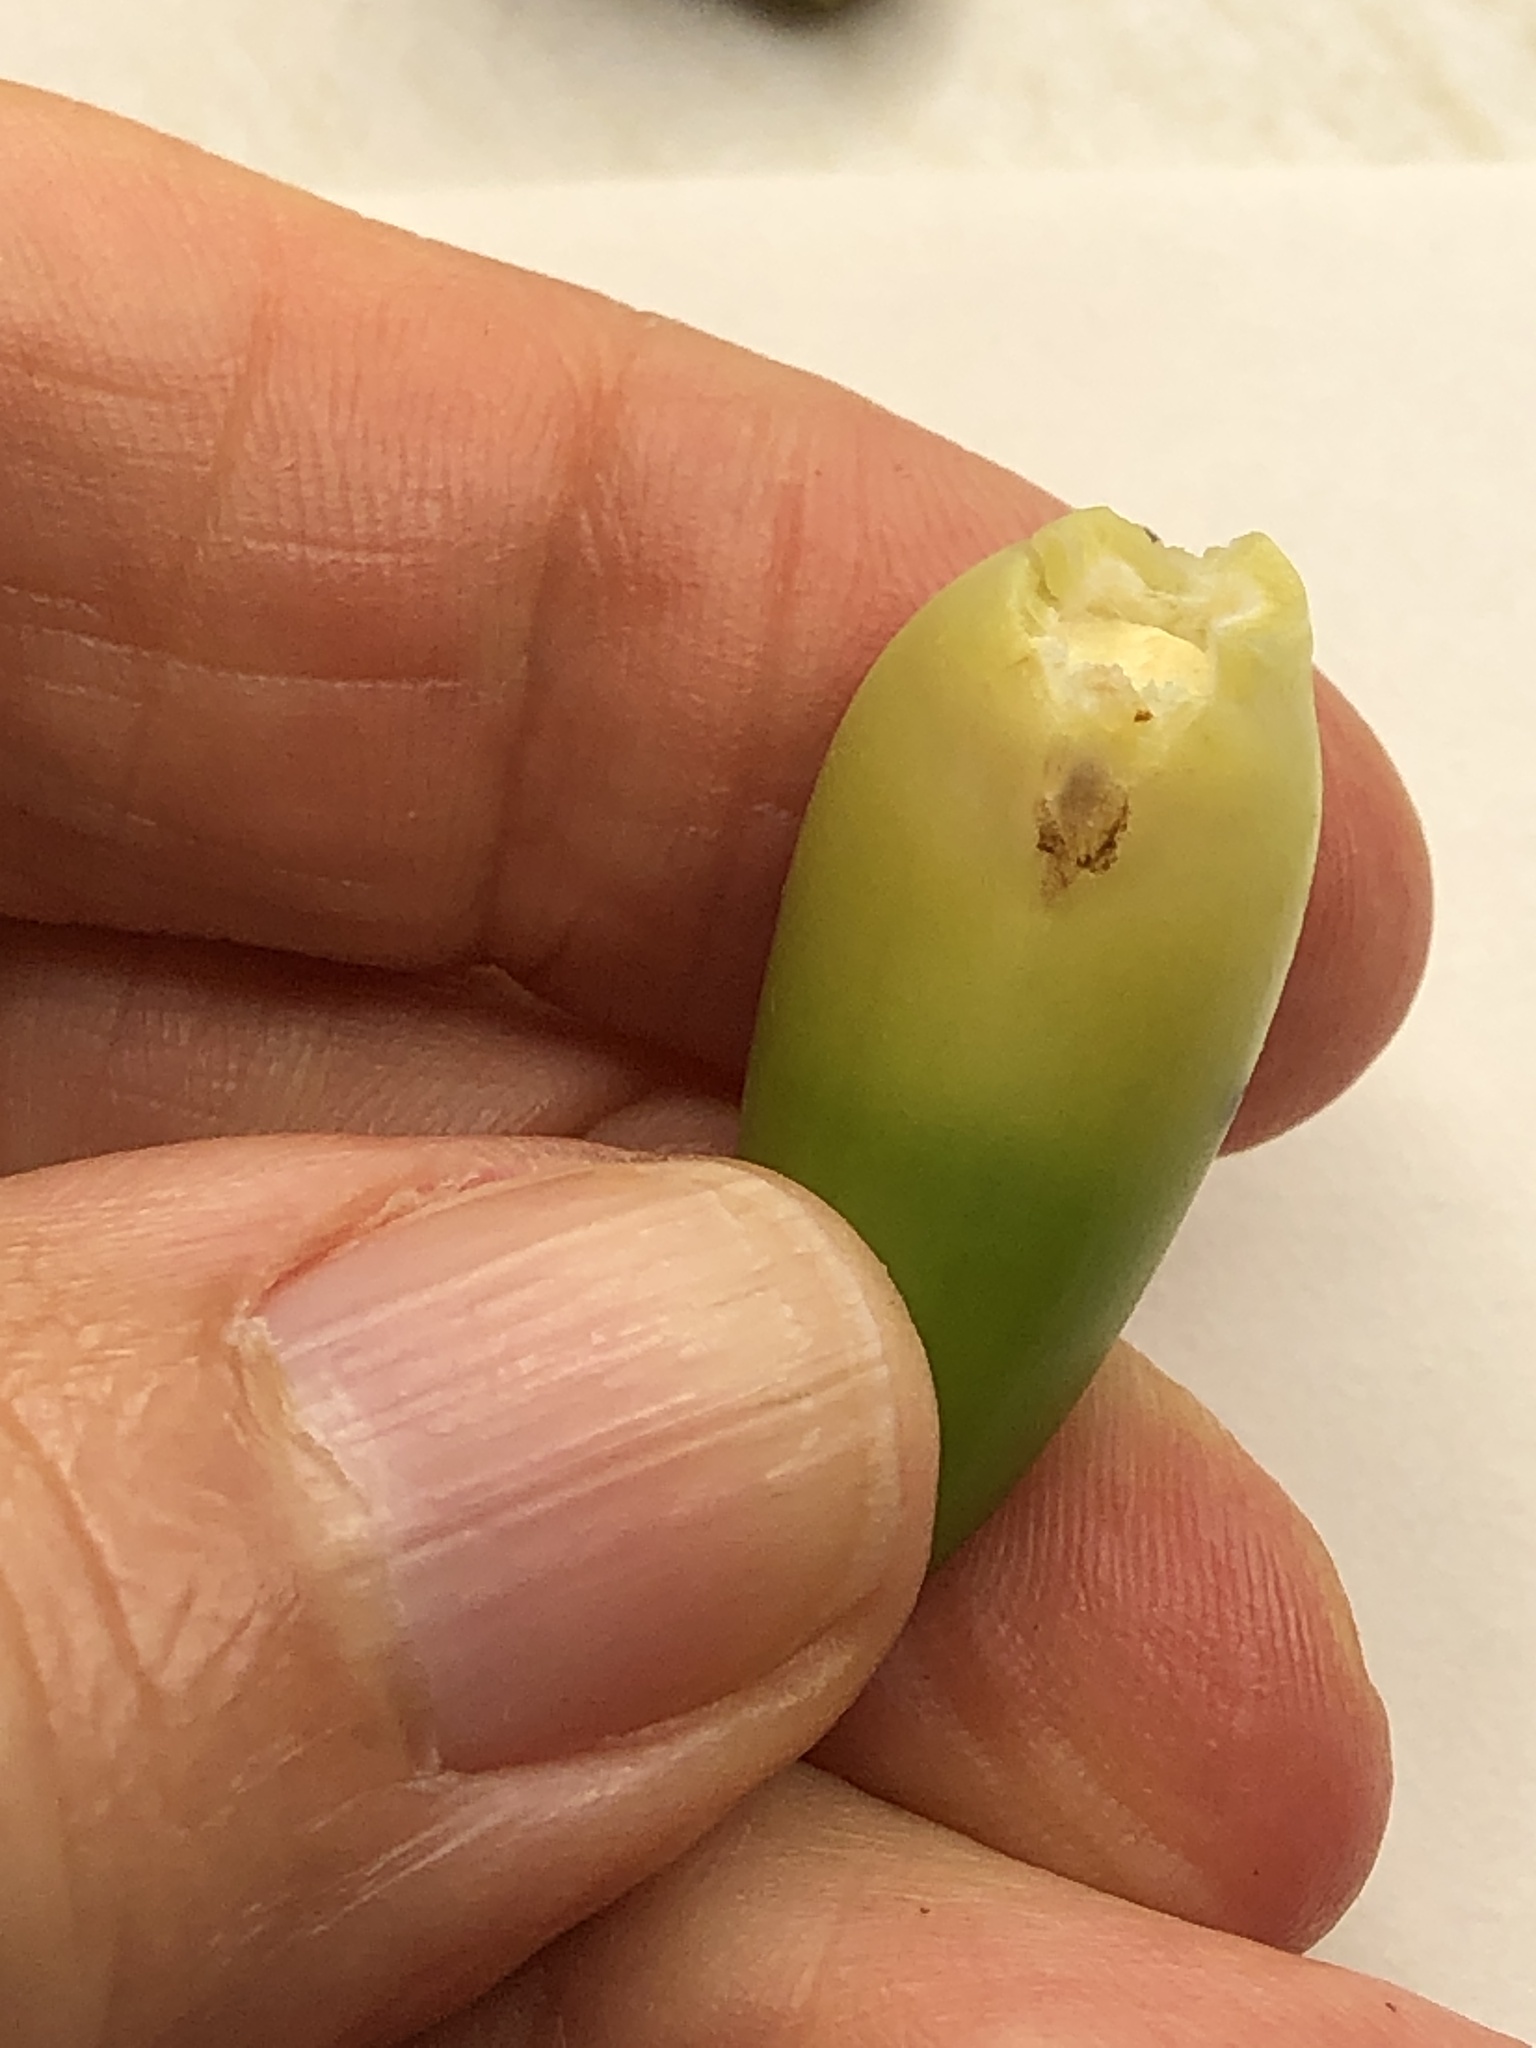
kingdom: Animalia
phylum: Arthropoda
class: Insecta
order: Hymenoptera
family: Cynipidae
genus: Callirhytis
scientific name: Callirhytis
